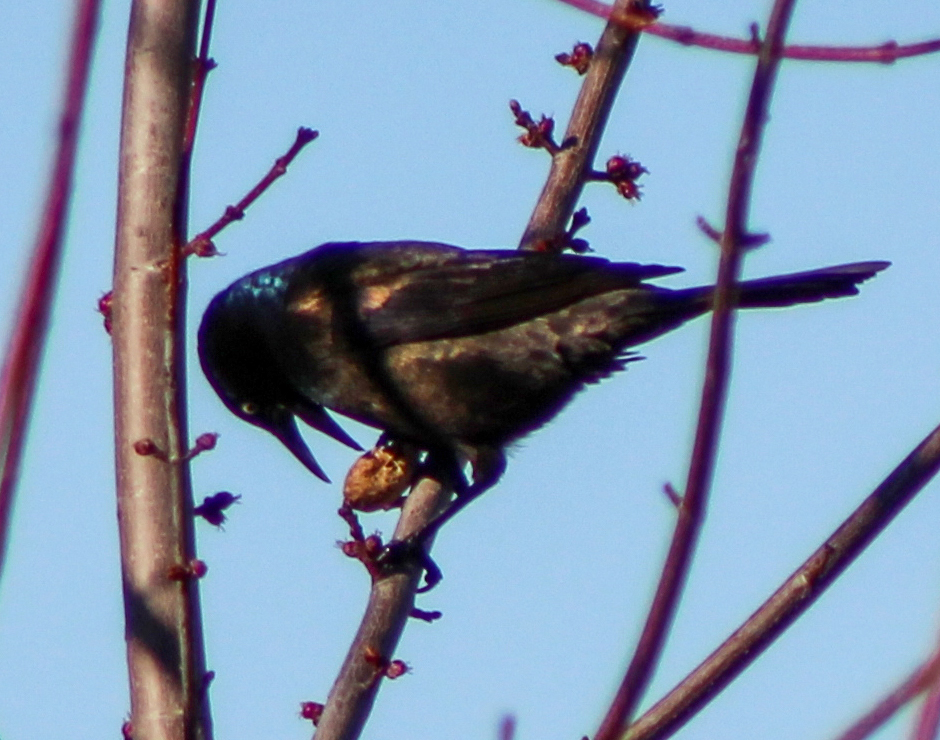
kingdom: Animalia
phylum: Chordata
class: Aves
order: Passeriformes
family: Icteridae
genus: Quiscalus
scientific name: Quiscalus quiscula
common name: Common grackle
